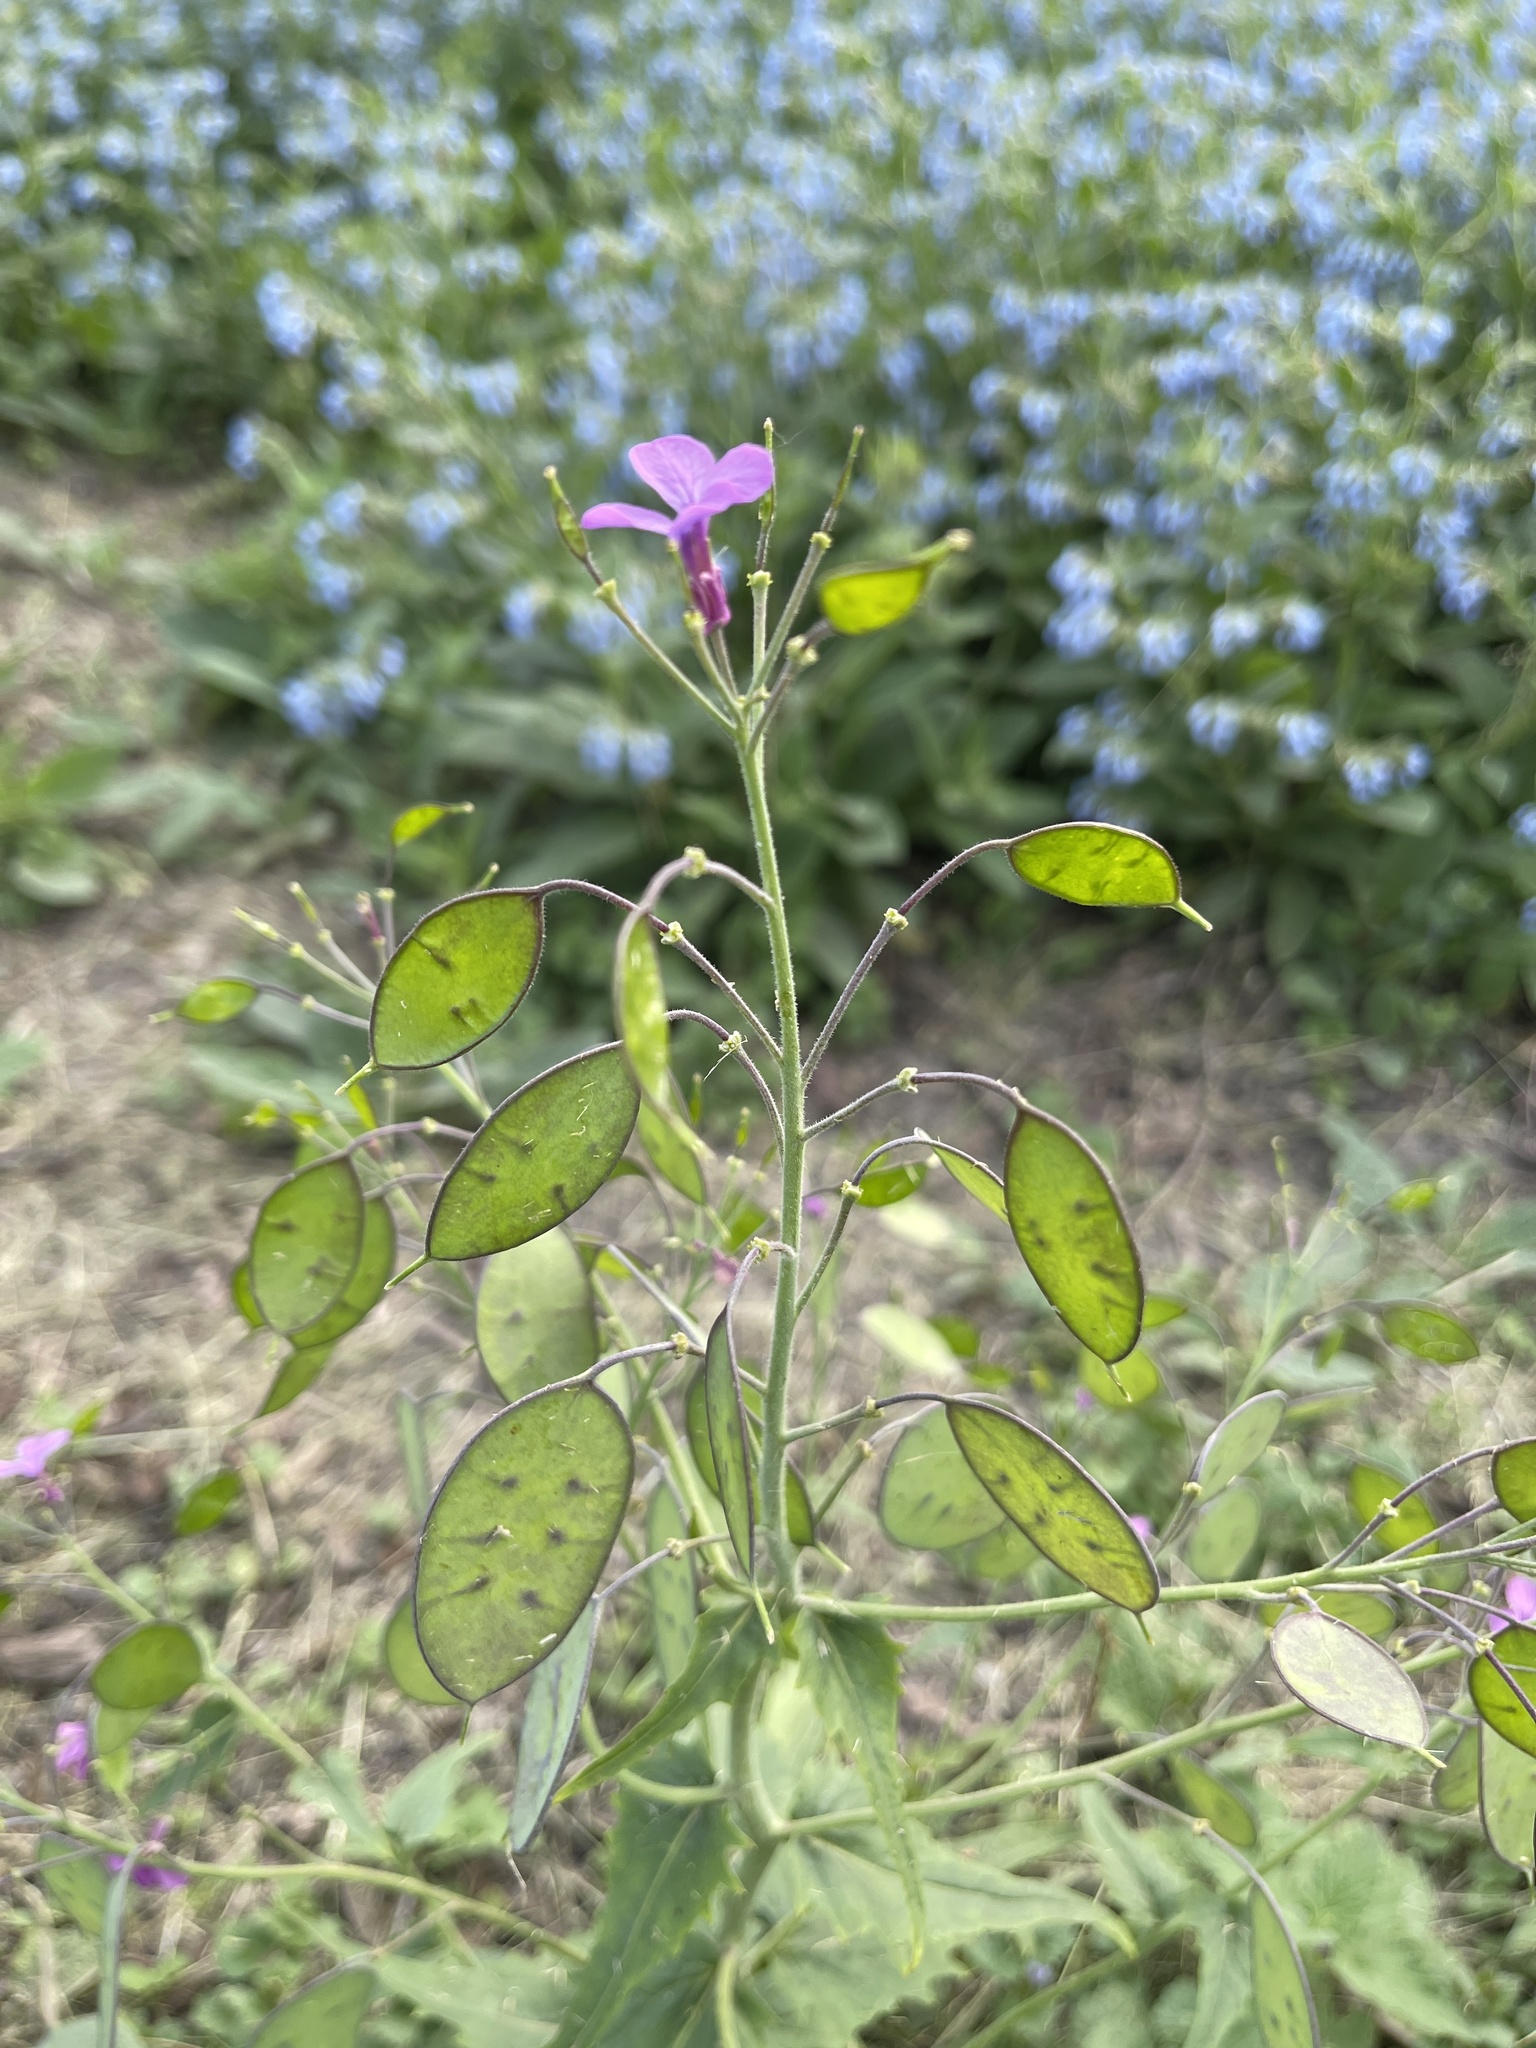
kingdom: Plantae
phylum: Tracheophyta
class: Magnoliopsida
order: Brassicales
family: Brassicaceae
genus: Lunaria
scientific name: Lunaria annua
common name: Honesty
